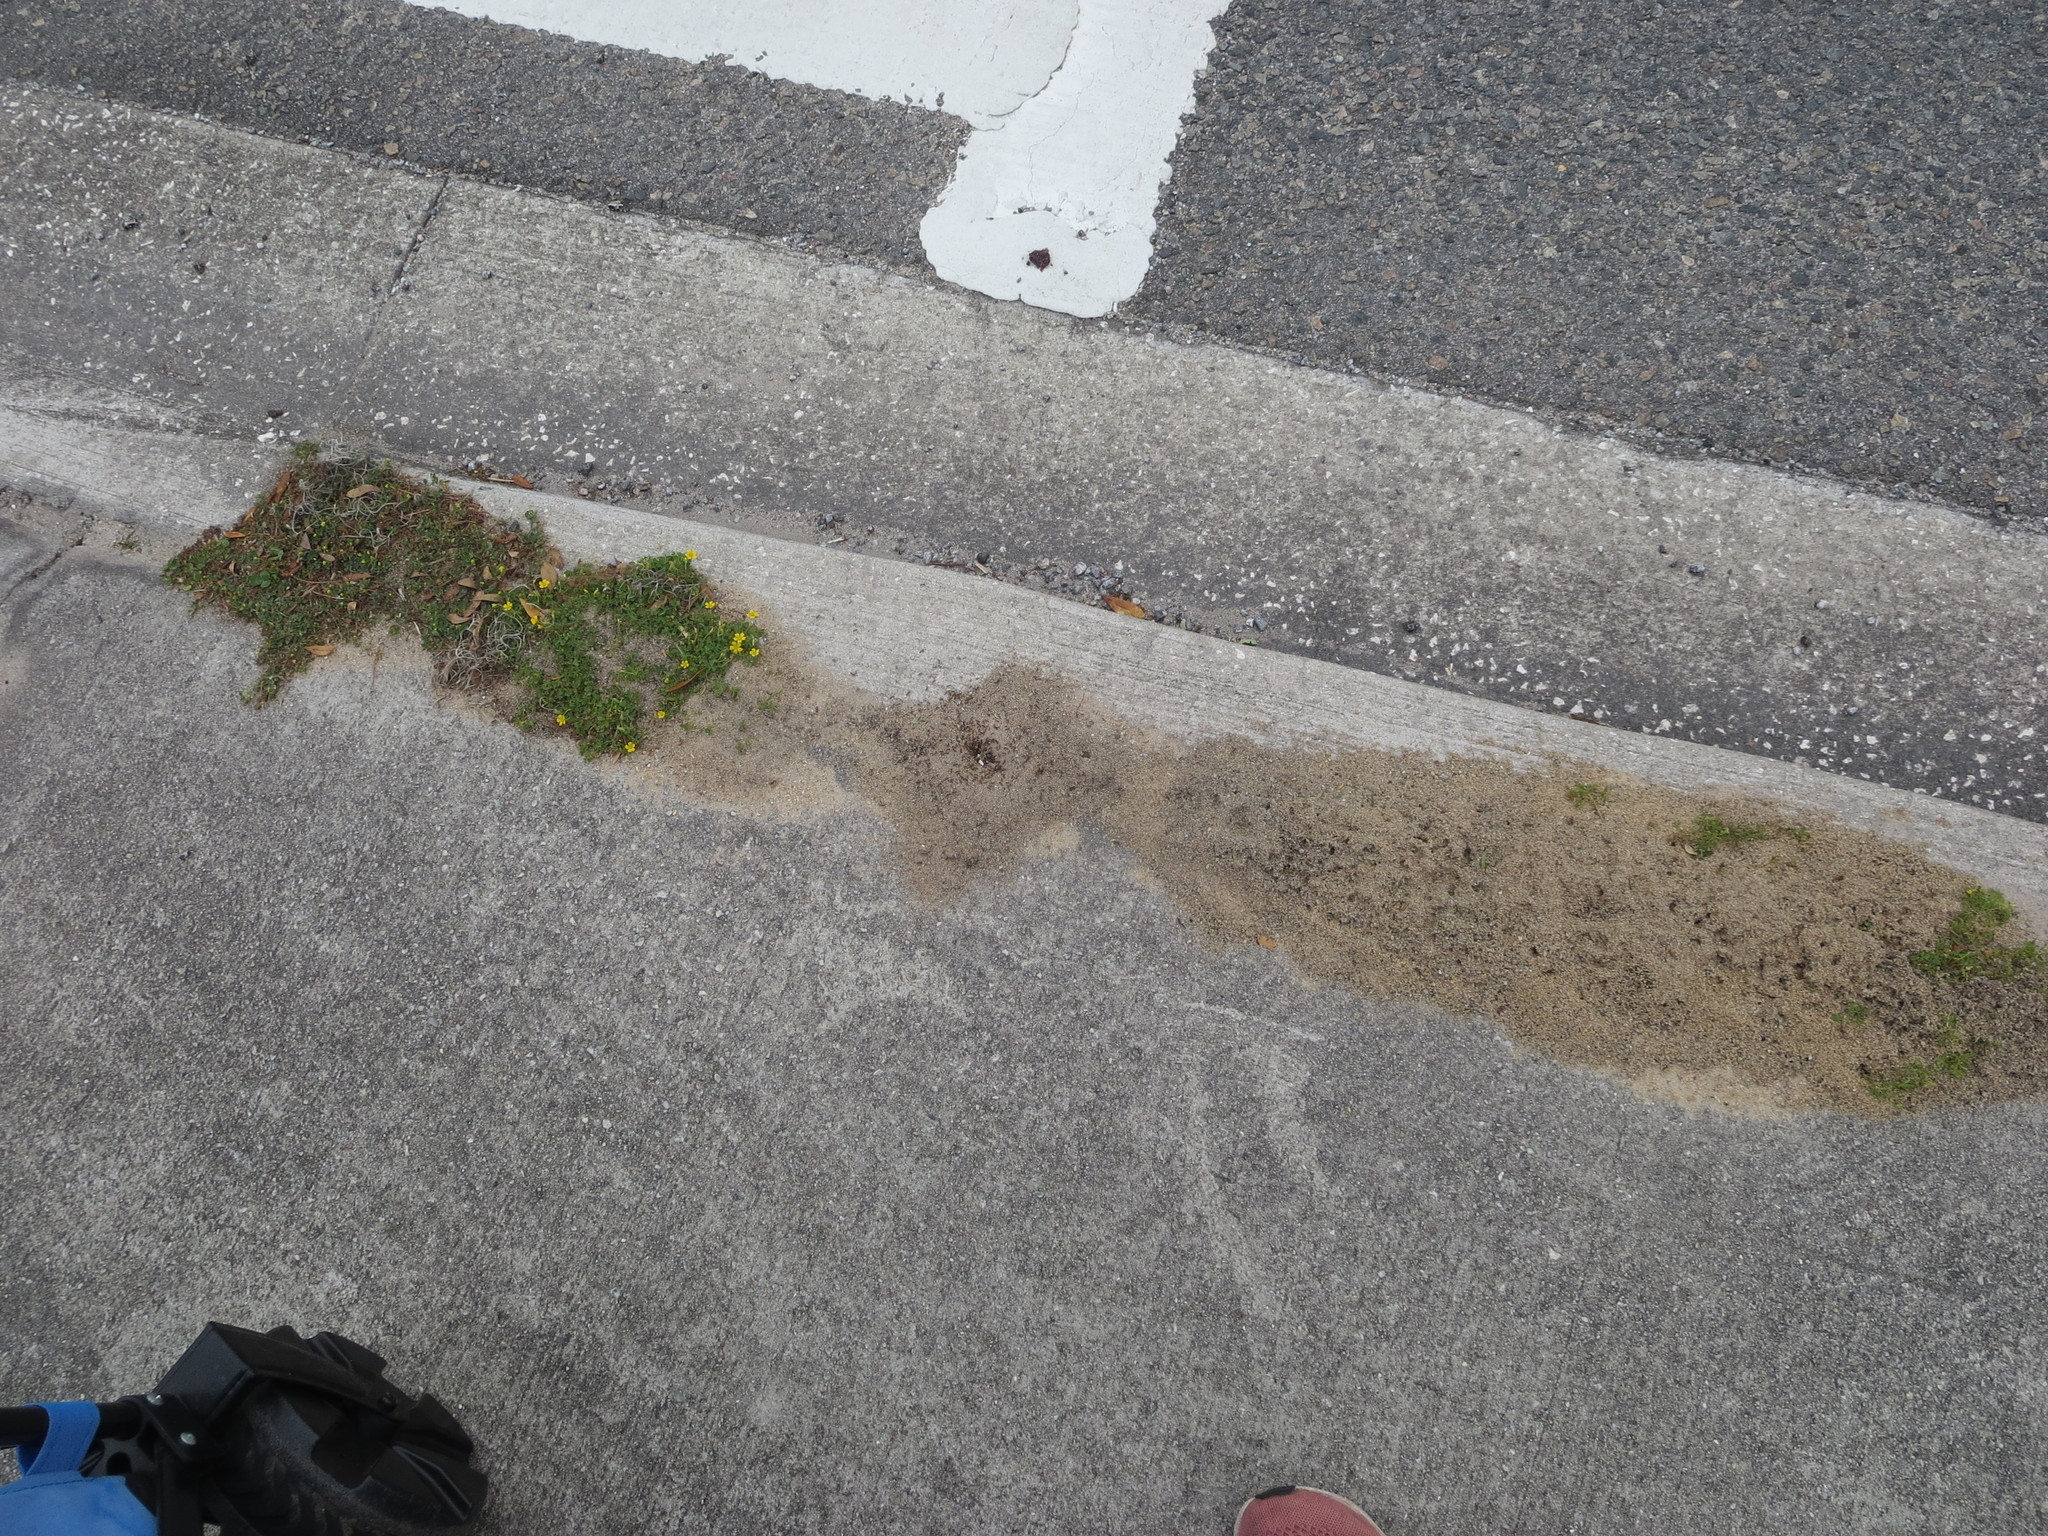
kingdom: Animalia
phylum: Arthropoda
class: Insecta
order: Hymenoptera
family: Formicidae
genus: Solenopsis
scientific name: Solenopsis invicta
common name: Red imported fire ant
